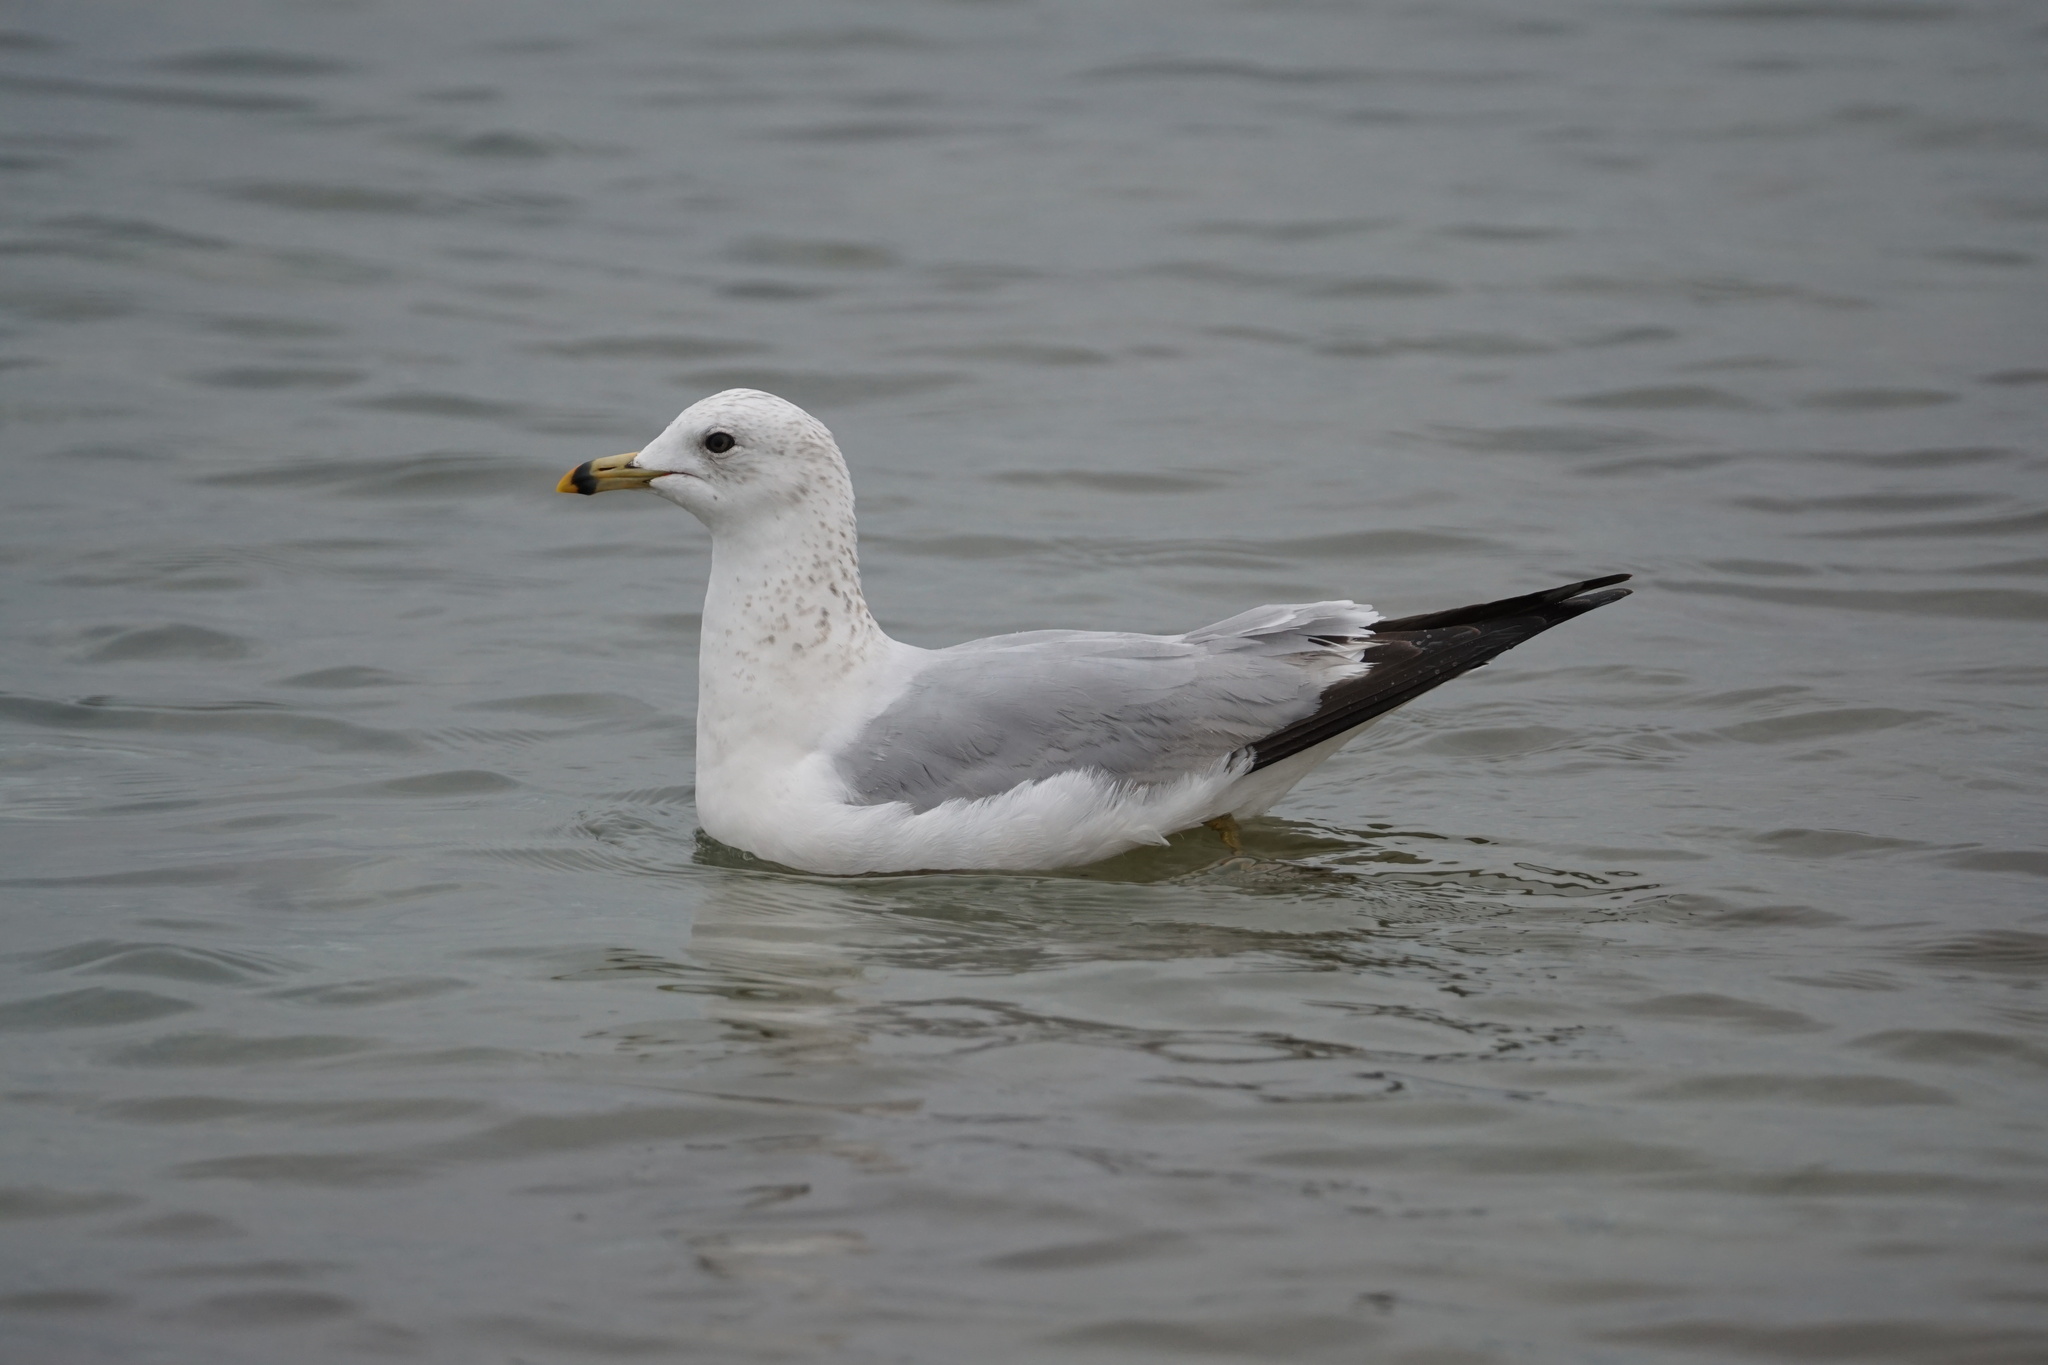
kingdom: Animalia
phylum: Chordata
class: Aves
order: Charadriiformes
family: Laridae
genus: Larus
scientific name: Larus delawarensis
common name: Ring-billed gull
